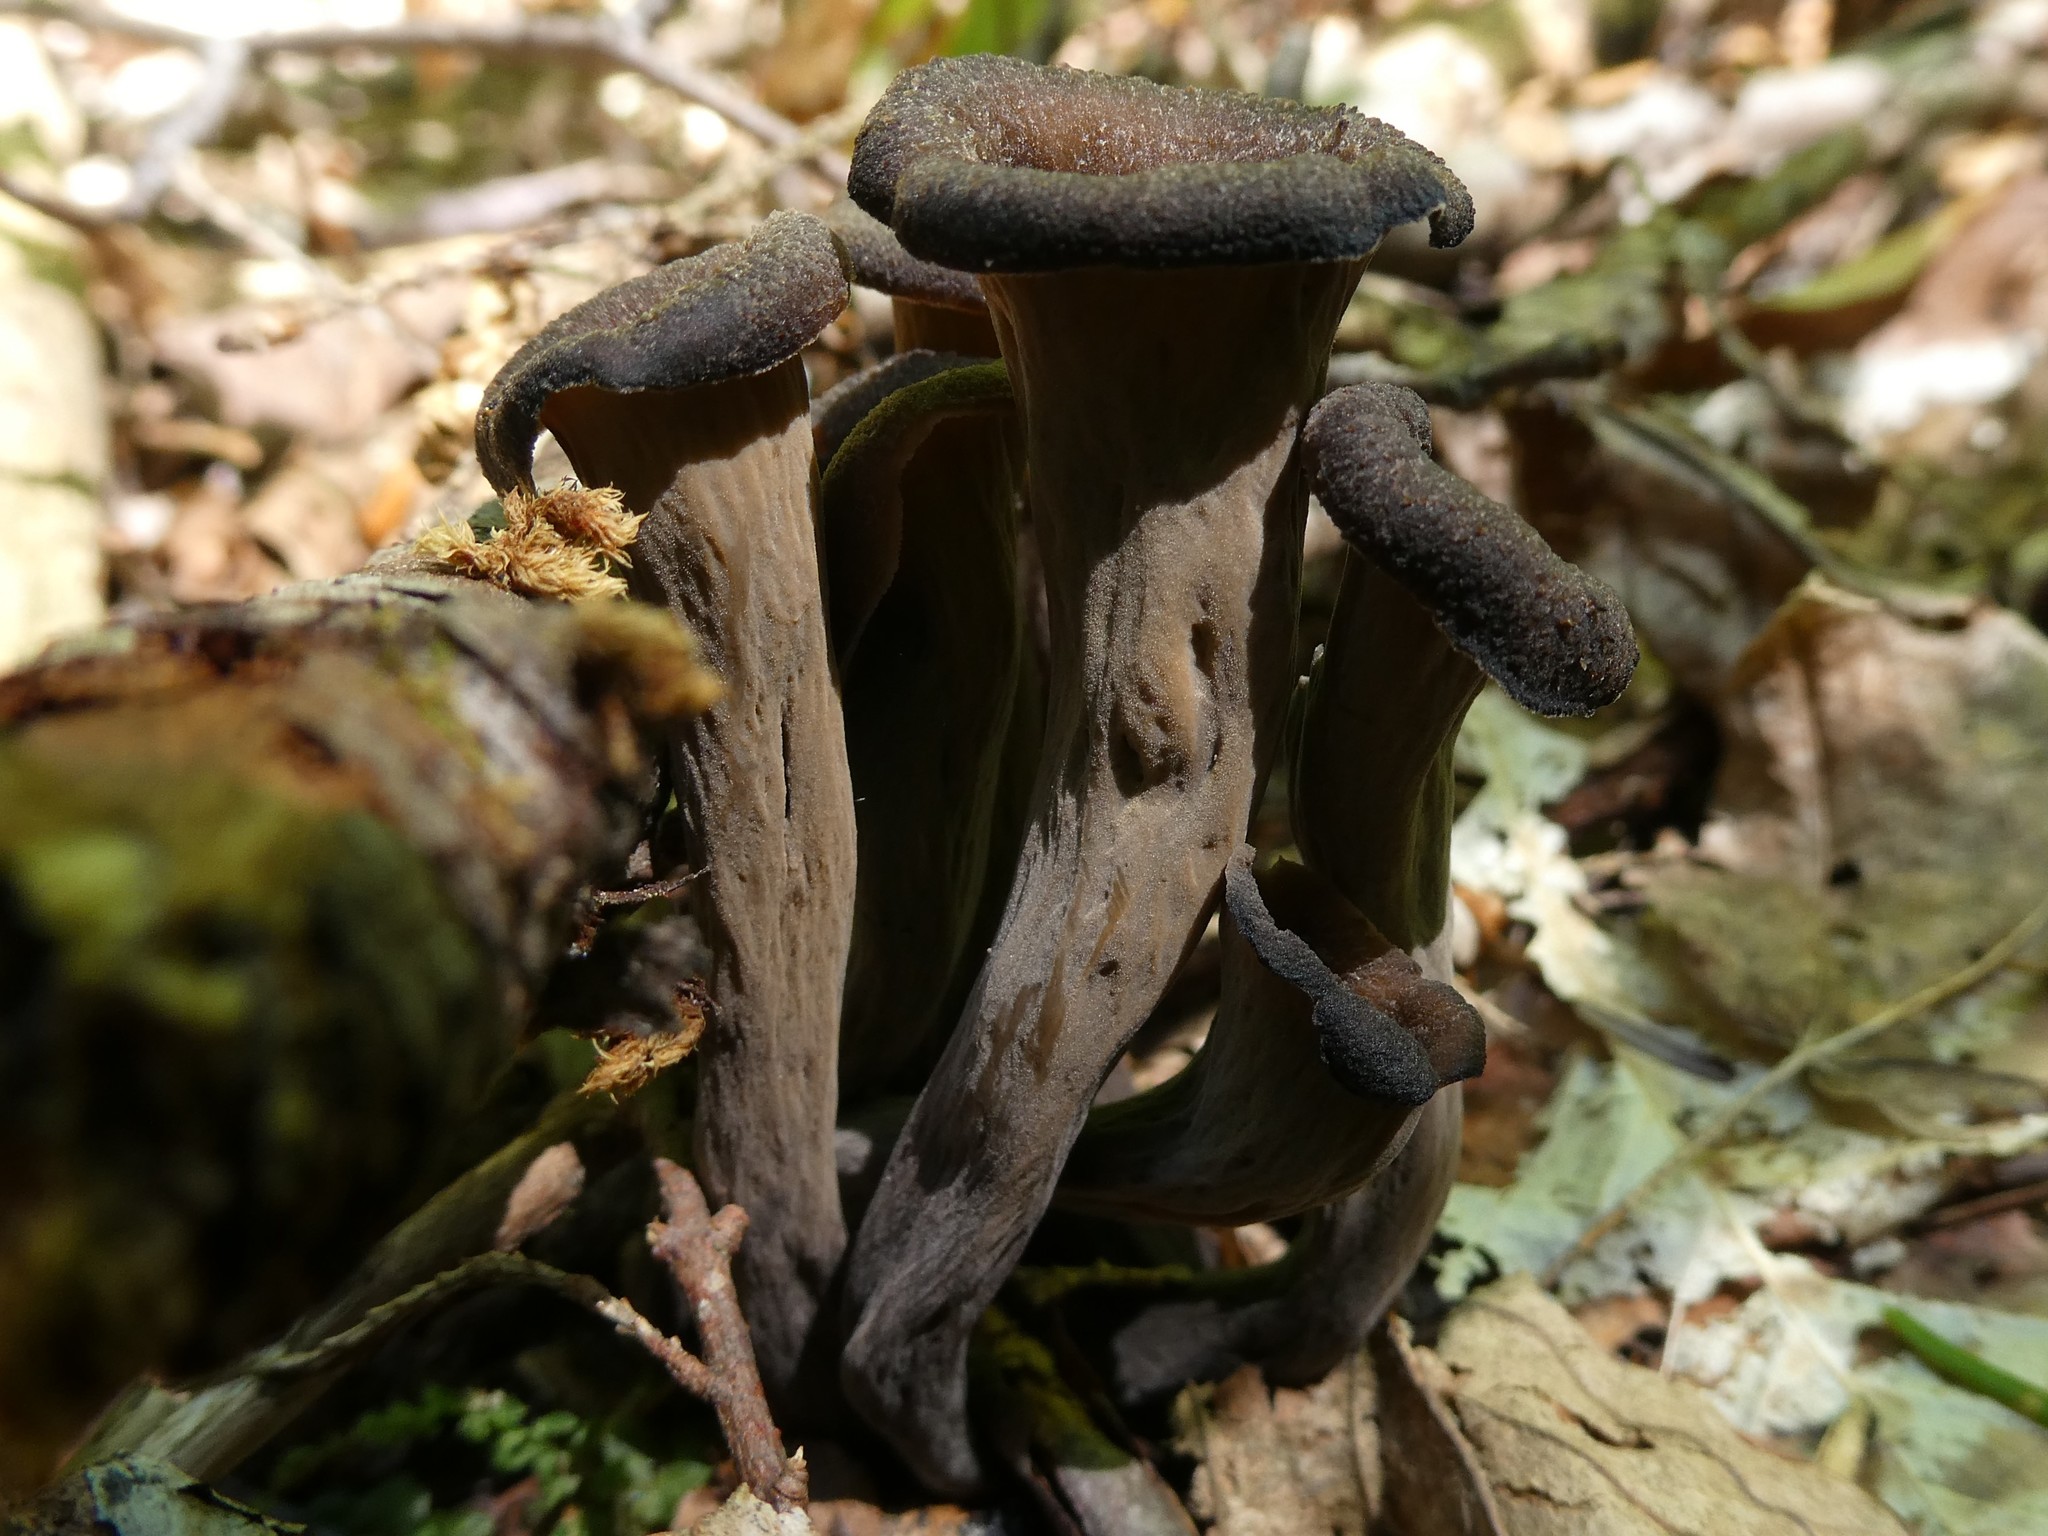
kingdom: Fungi
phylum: Basidiomycota
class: Agaricomycetes
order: Cantharellales
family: Hydnaceae
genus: Craterellus
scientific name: Craterellus cornucopioides
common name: Horn of plenty
